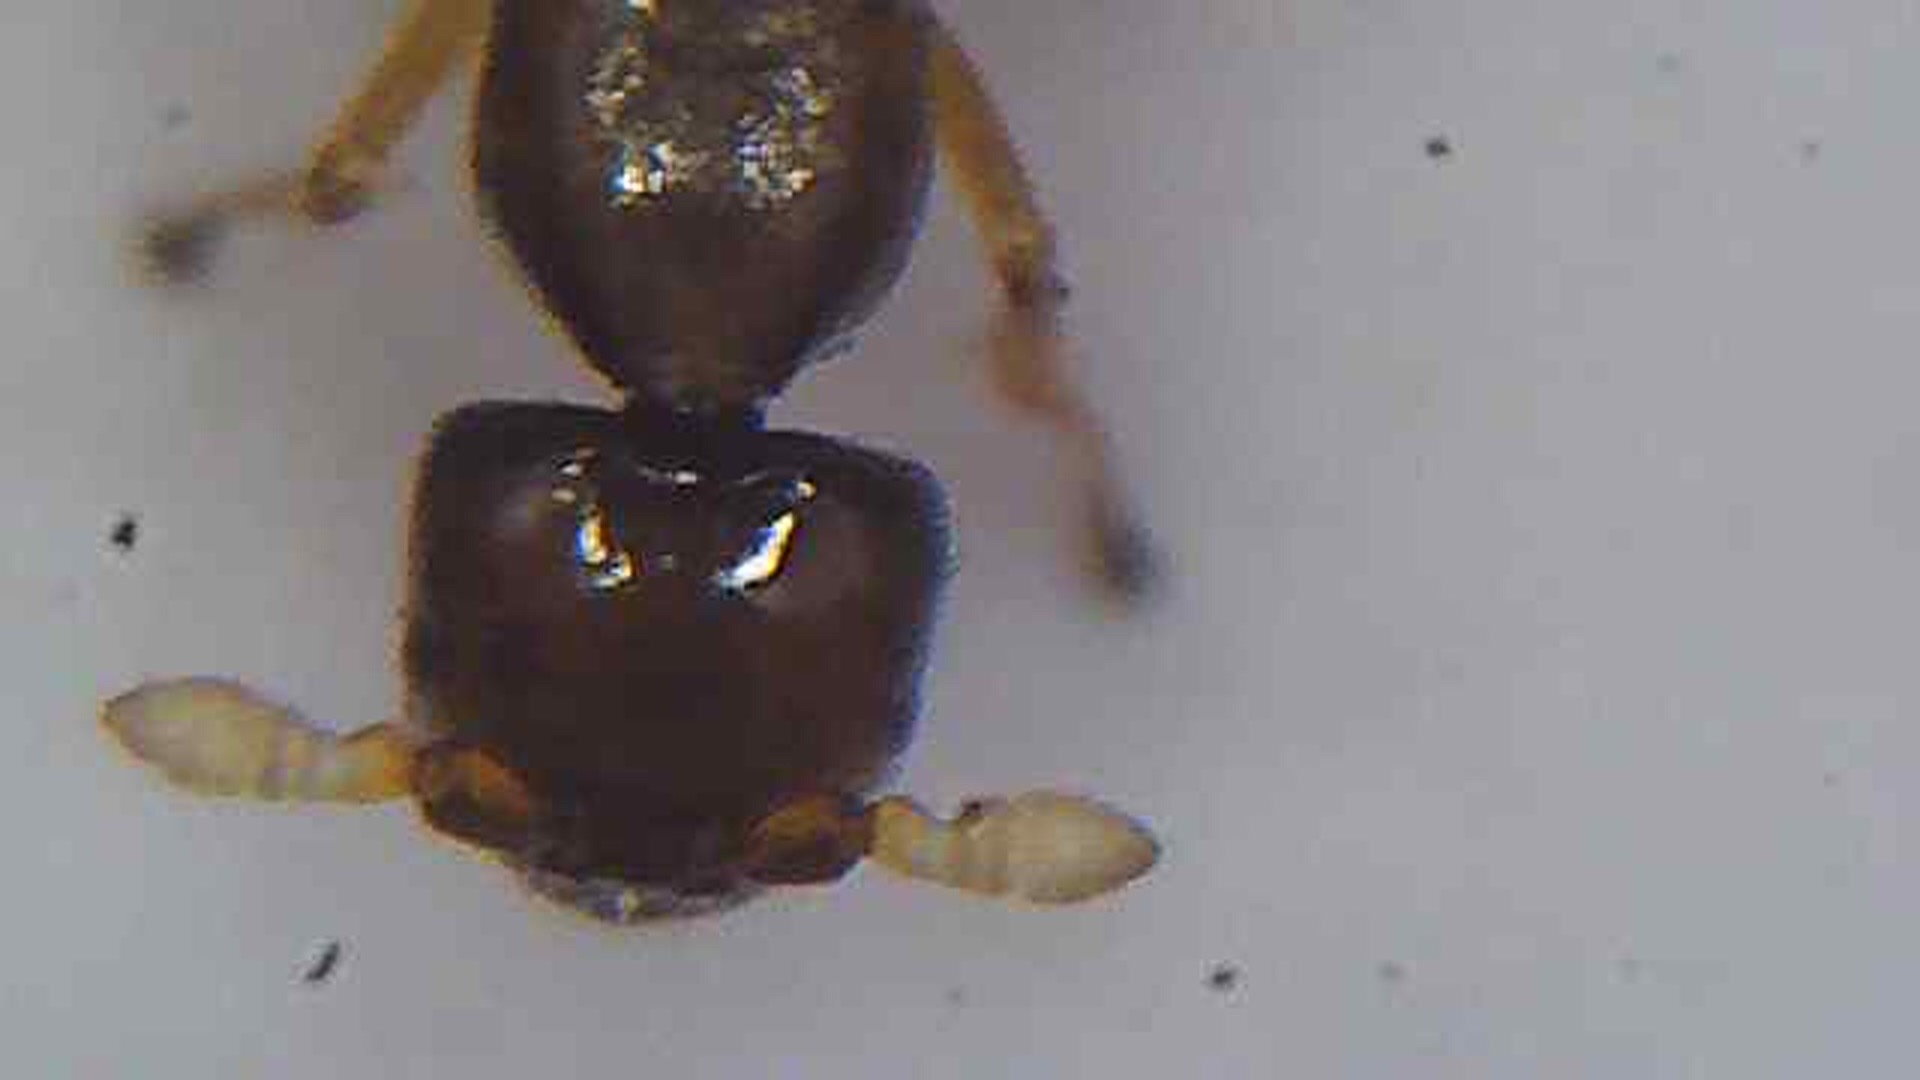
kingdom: Animalia
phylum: Arthropoda
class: Insecta
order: Hymenoptera
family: Agaonidae
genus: Pseudidarnes
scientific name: Pseudidarnes minerva
